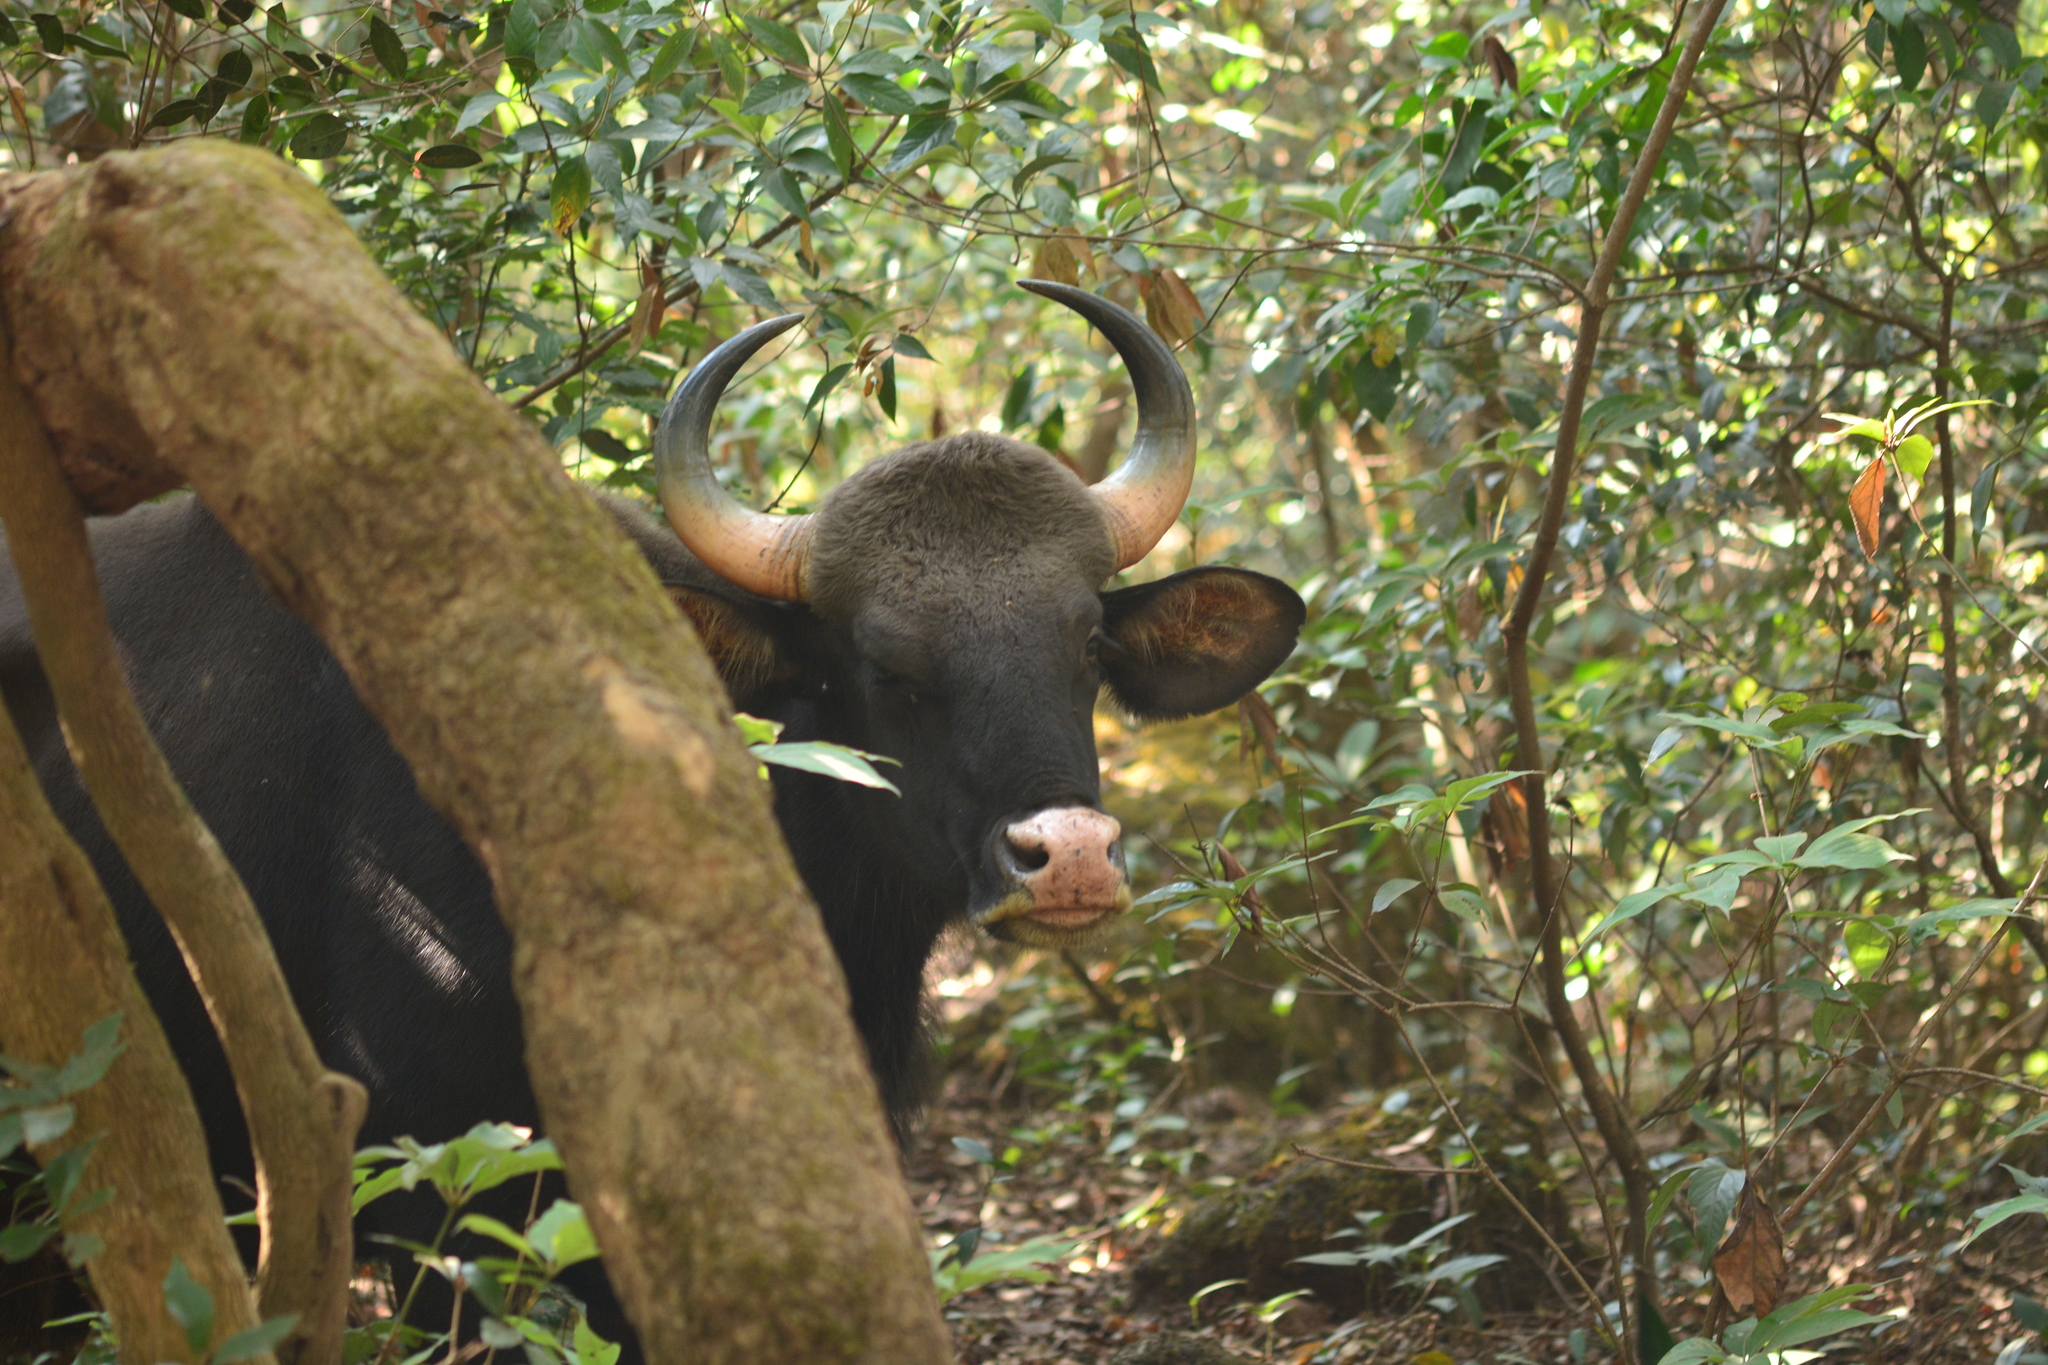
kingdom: Animalia
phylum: Chordata
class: Mammalia
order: Artiodactyla
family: Bovidae
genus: Bos
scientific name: Bos frontalis
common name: Gaur
